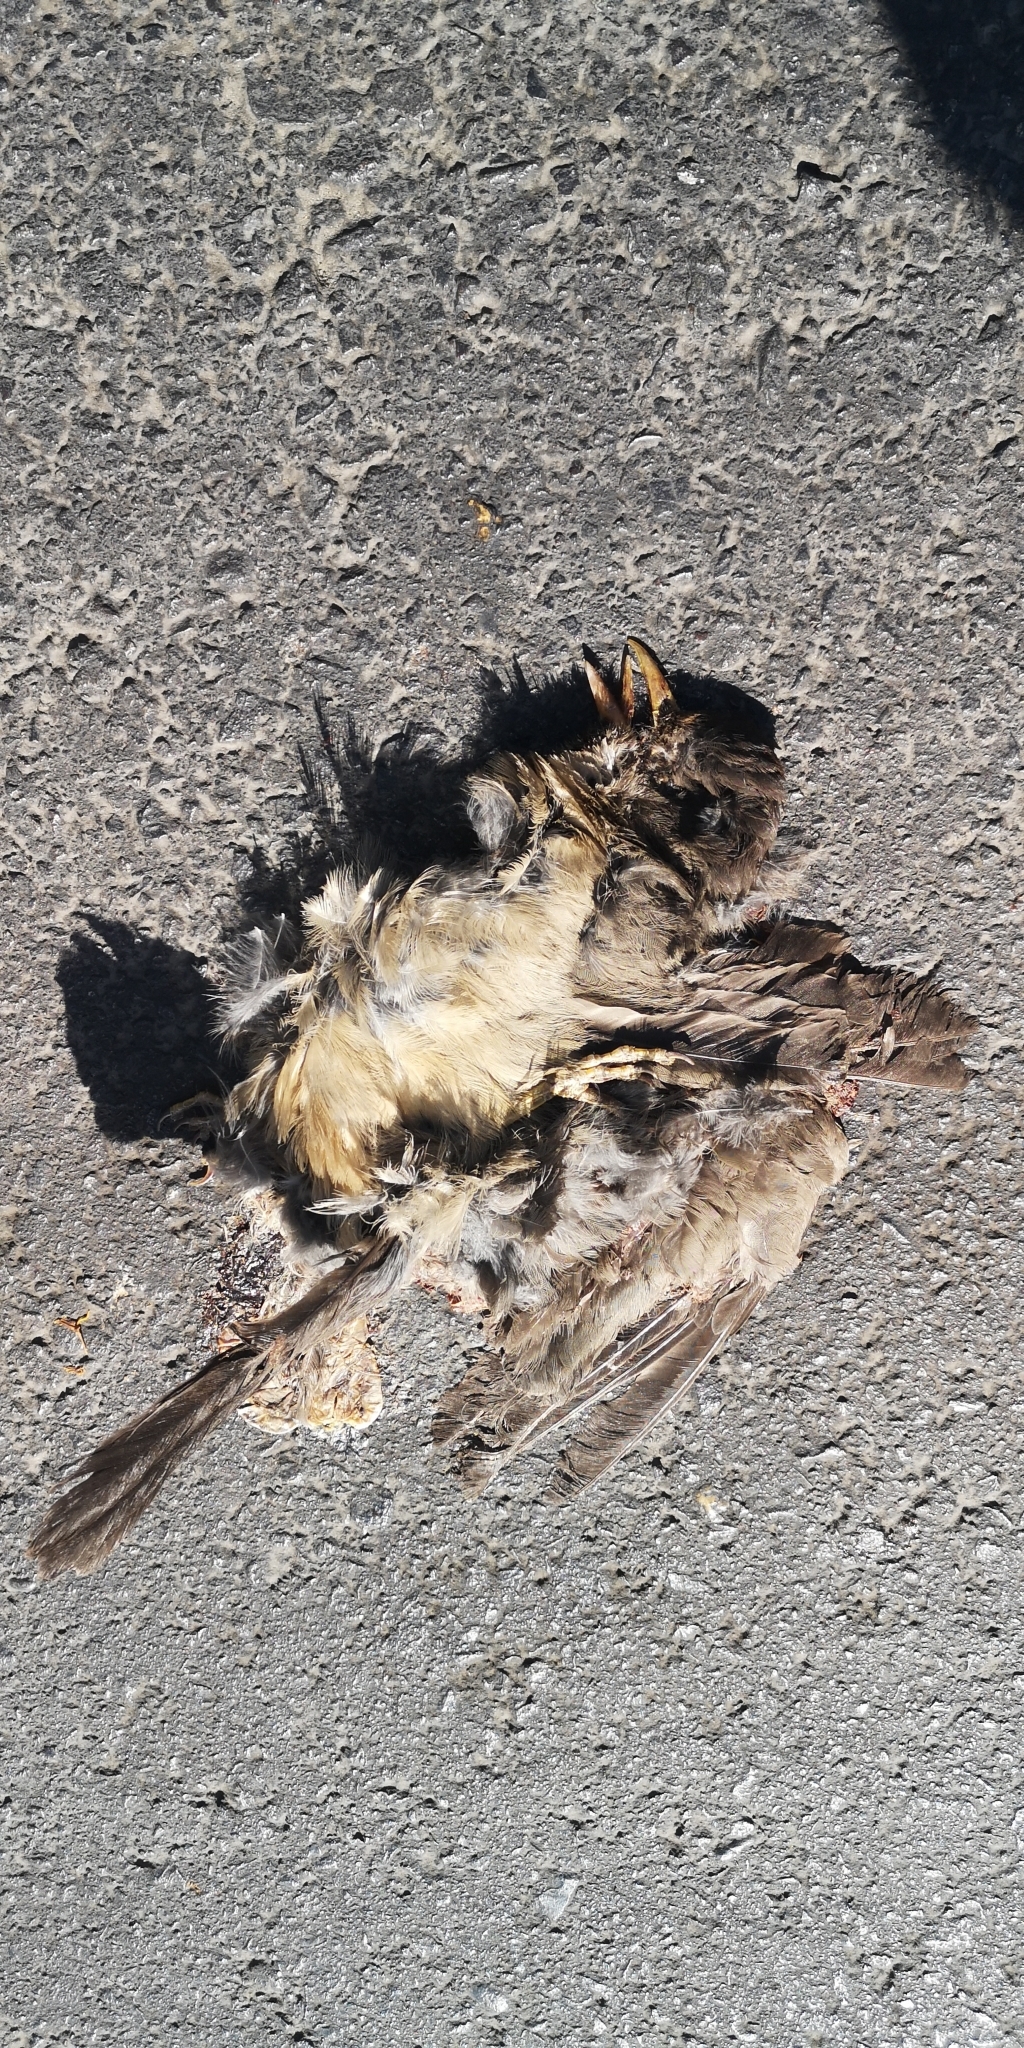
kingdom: Animalia
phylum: Chordata
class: Aves
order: Passeriformes
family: Turdidae
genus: Turdus
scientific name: Turdus falcklandii
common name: Austral thrush
